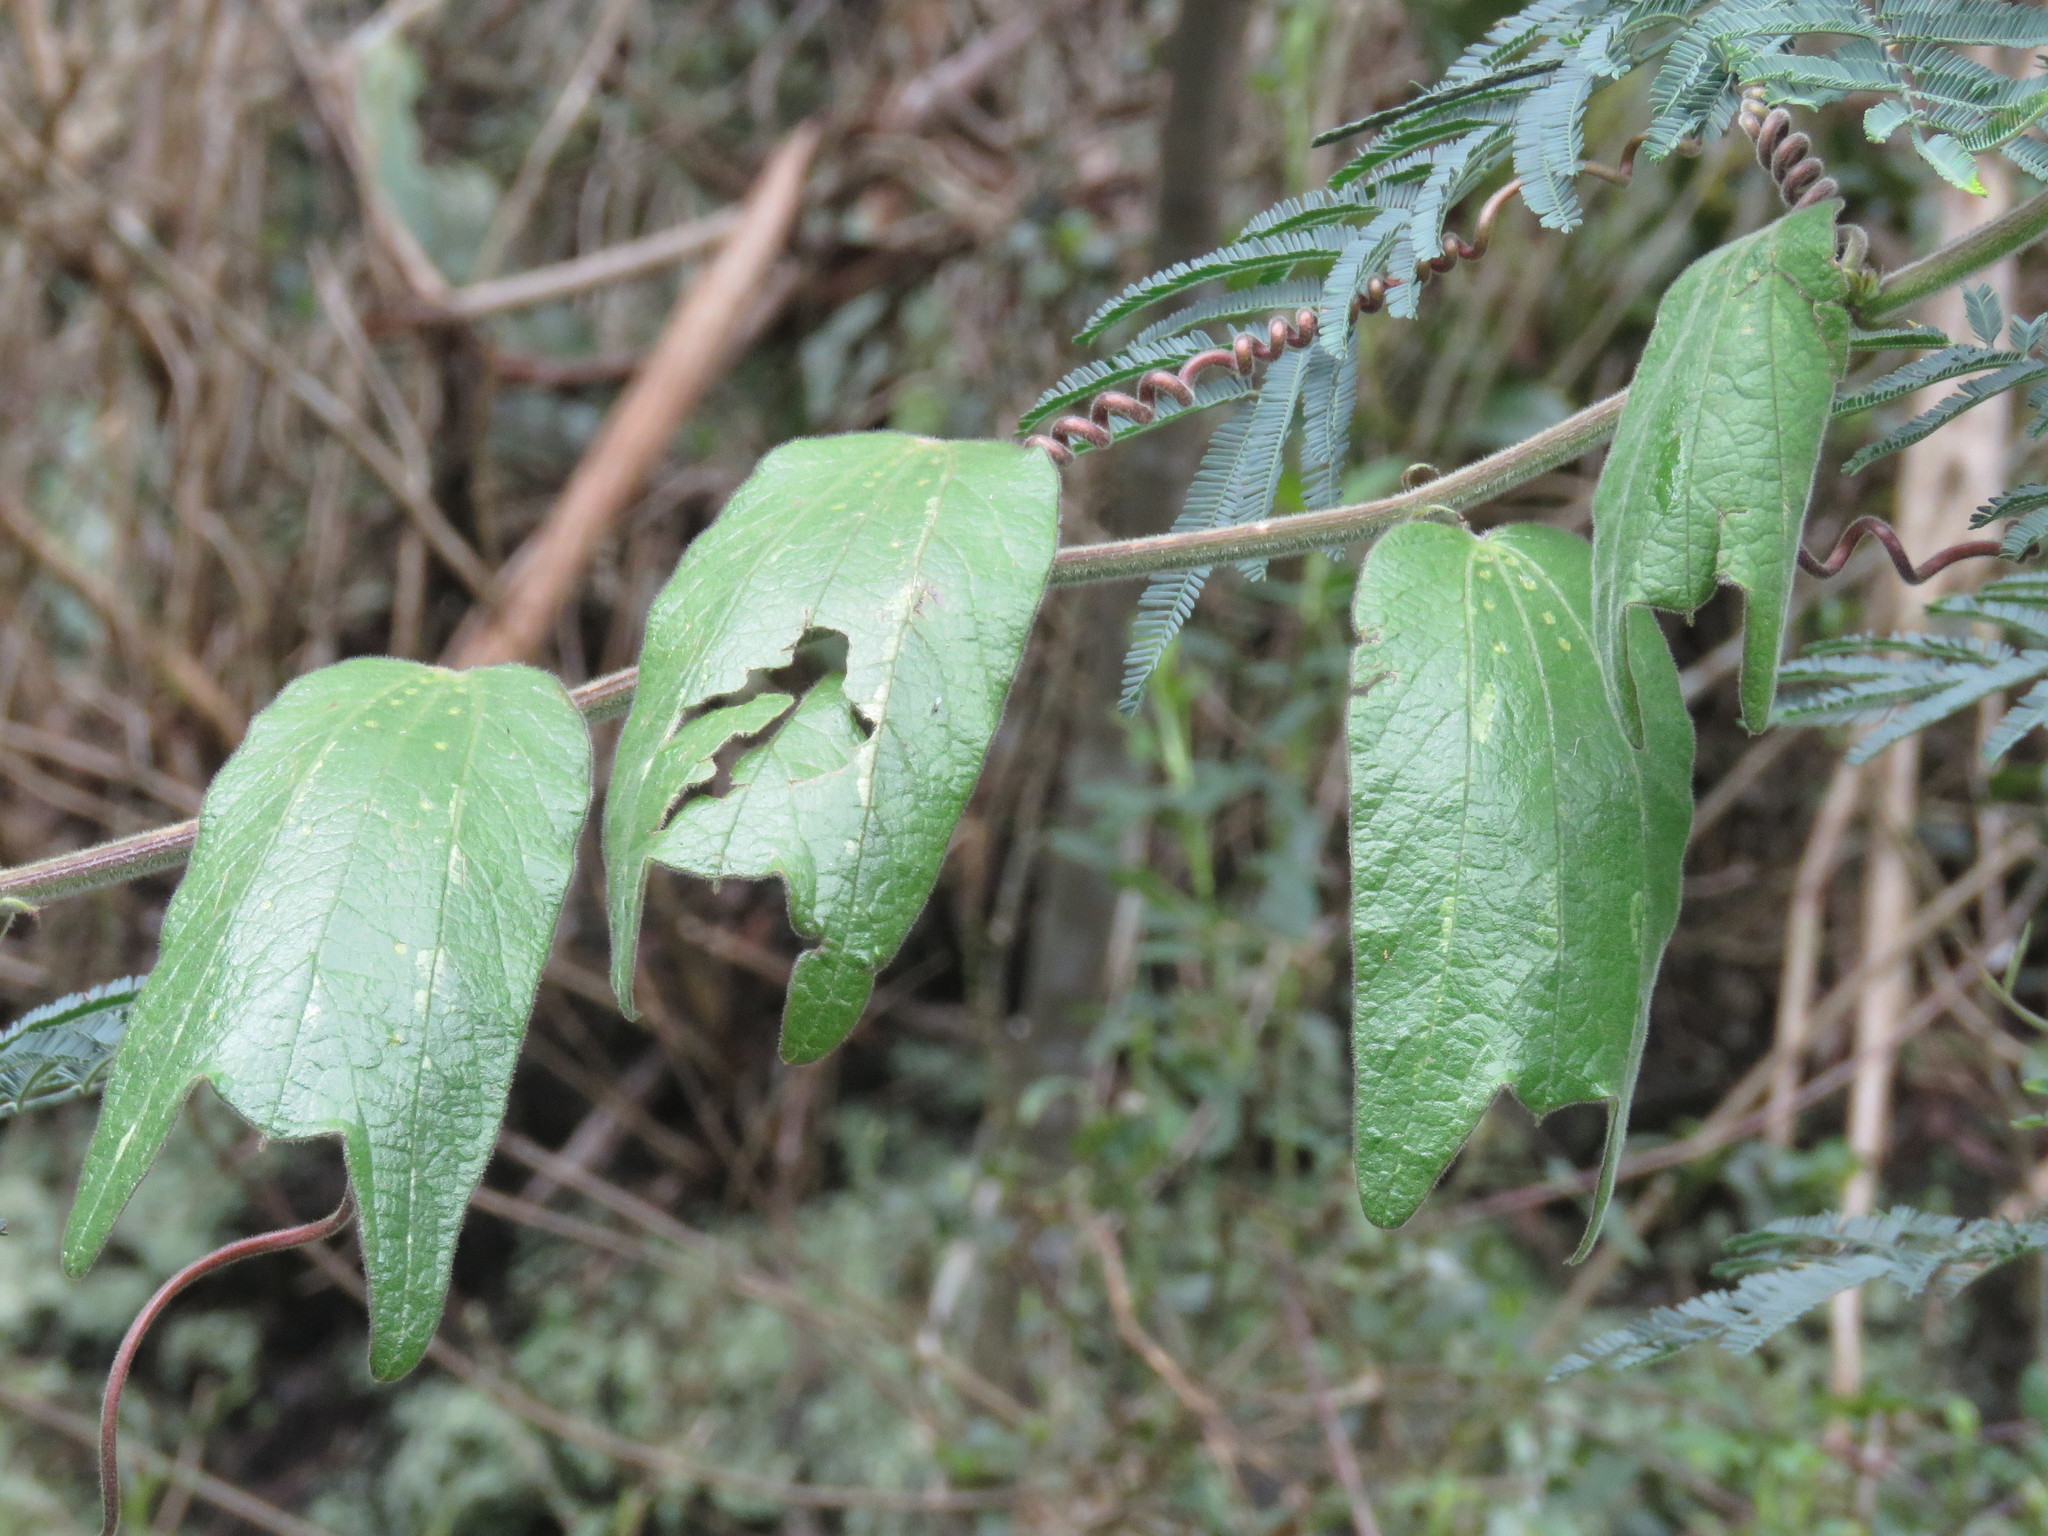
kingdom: Plantae
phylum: Tracheophyta
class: Magnoliopsida
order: Malpighiales
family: Passifloraceae
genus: Passiflora
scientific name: Passiflora bogotensis
